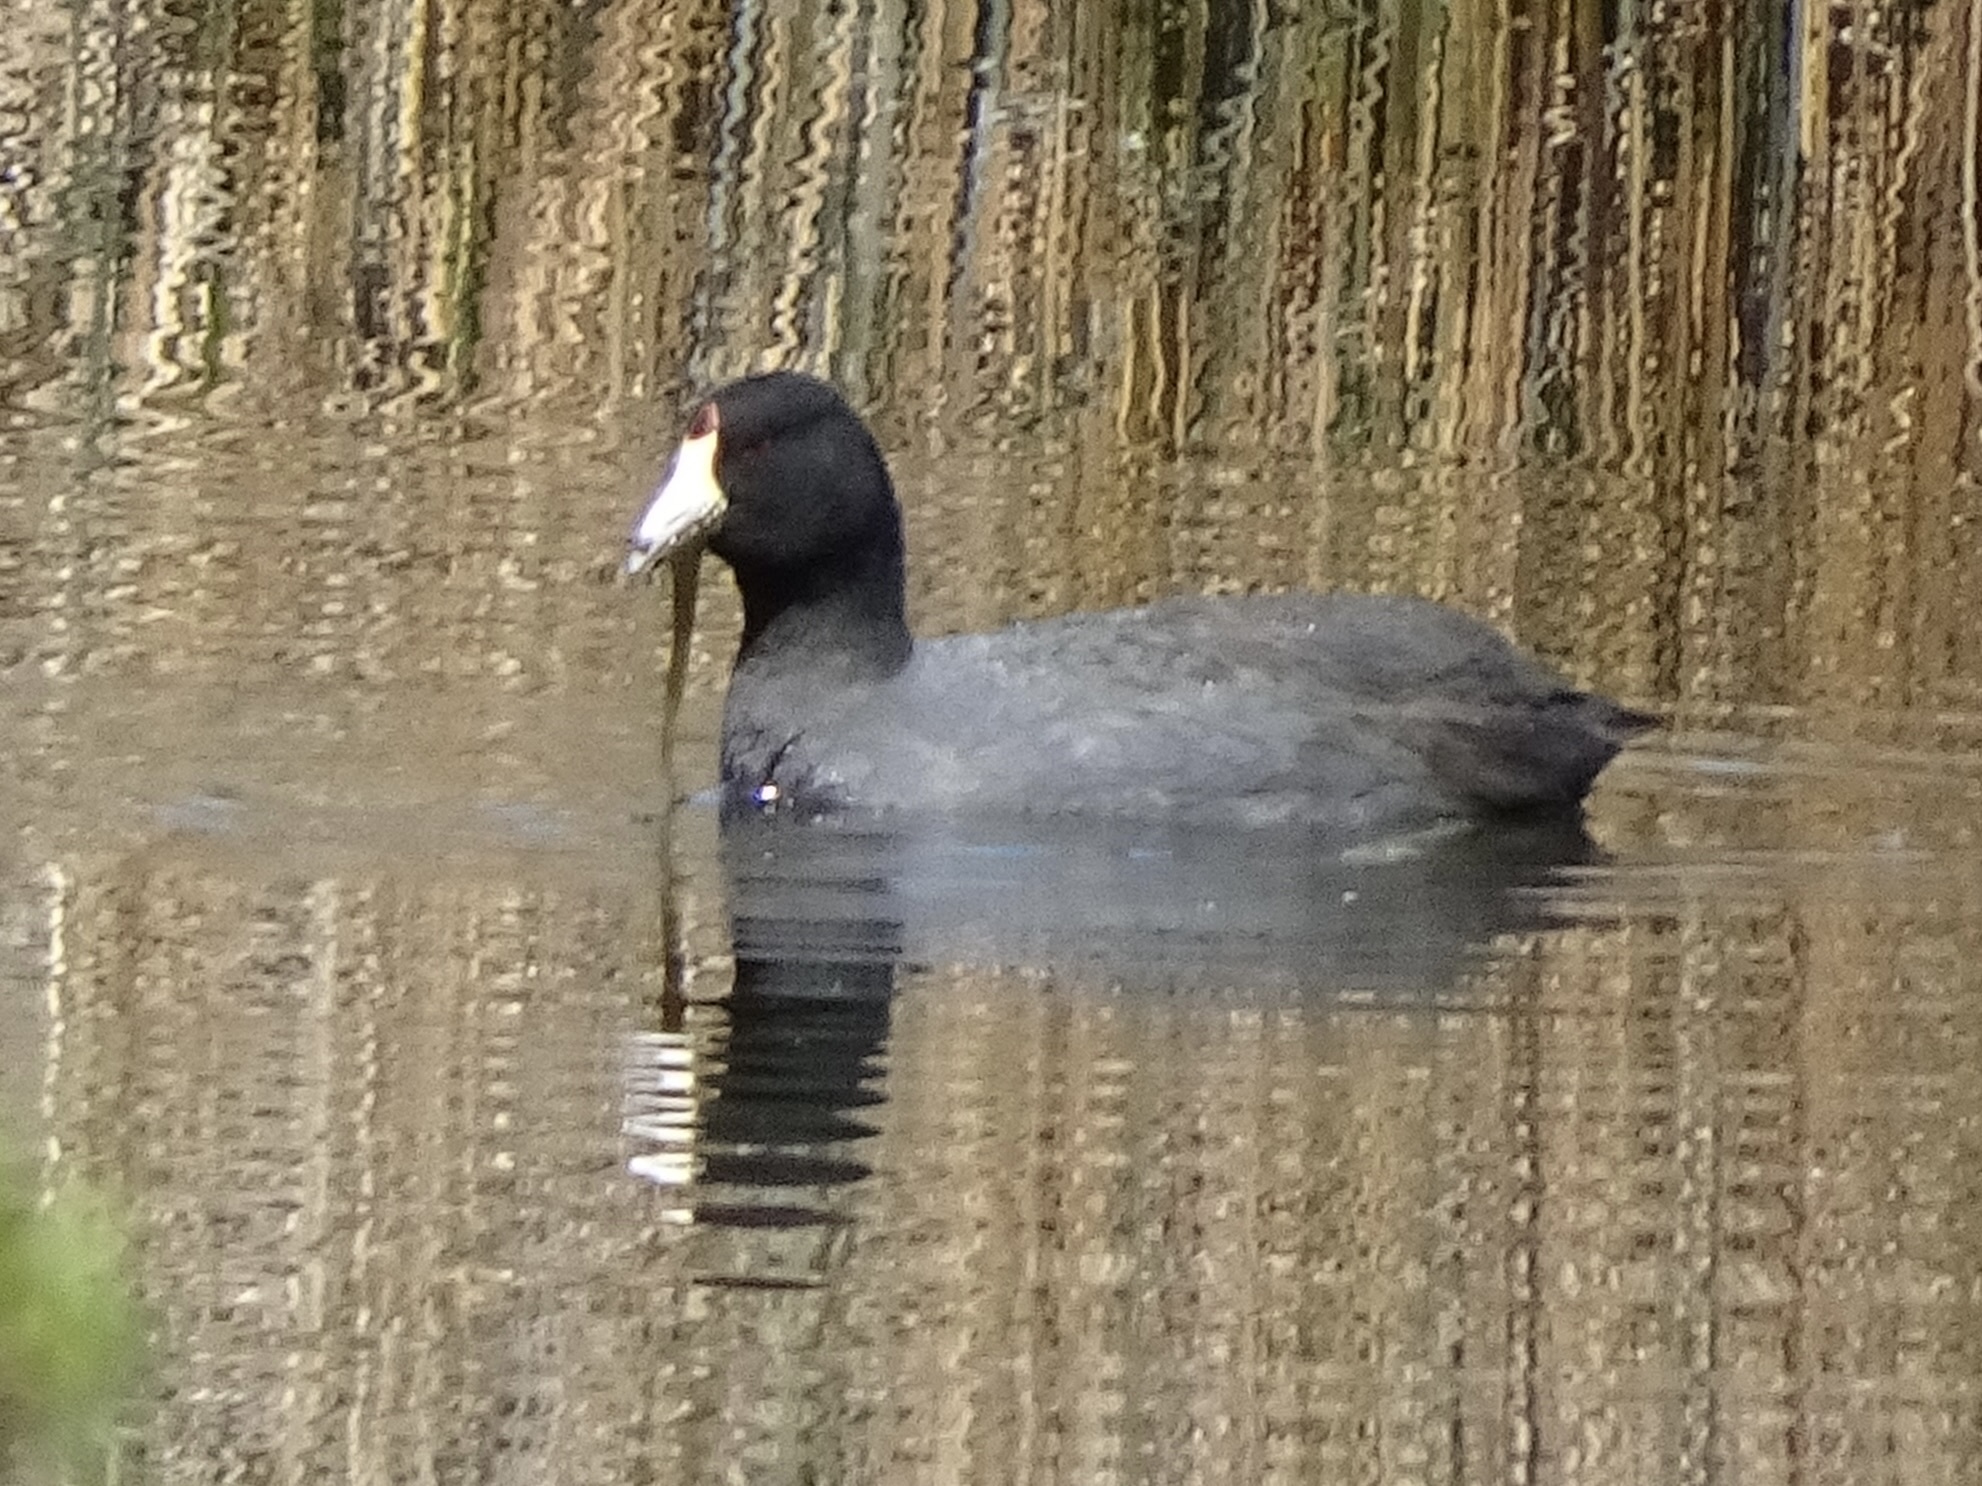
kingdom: Animalia
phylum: Chordata
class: Aves
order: Gruiformes
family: Rallidae
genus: Fulica
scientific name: Fulica americana
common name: American coot
